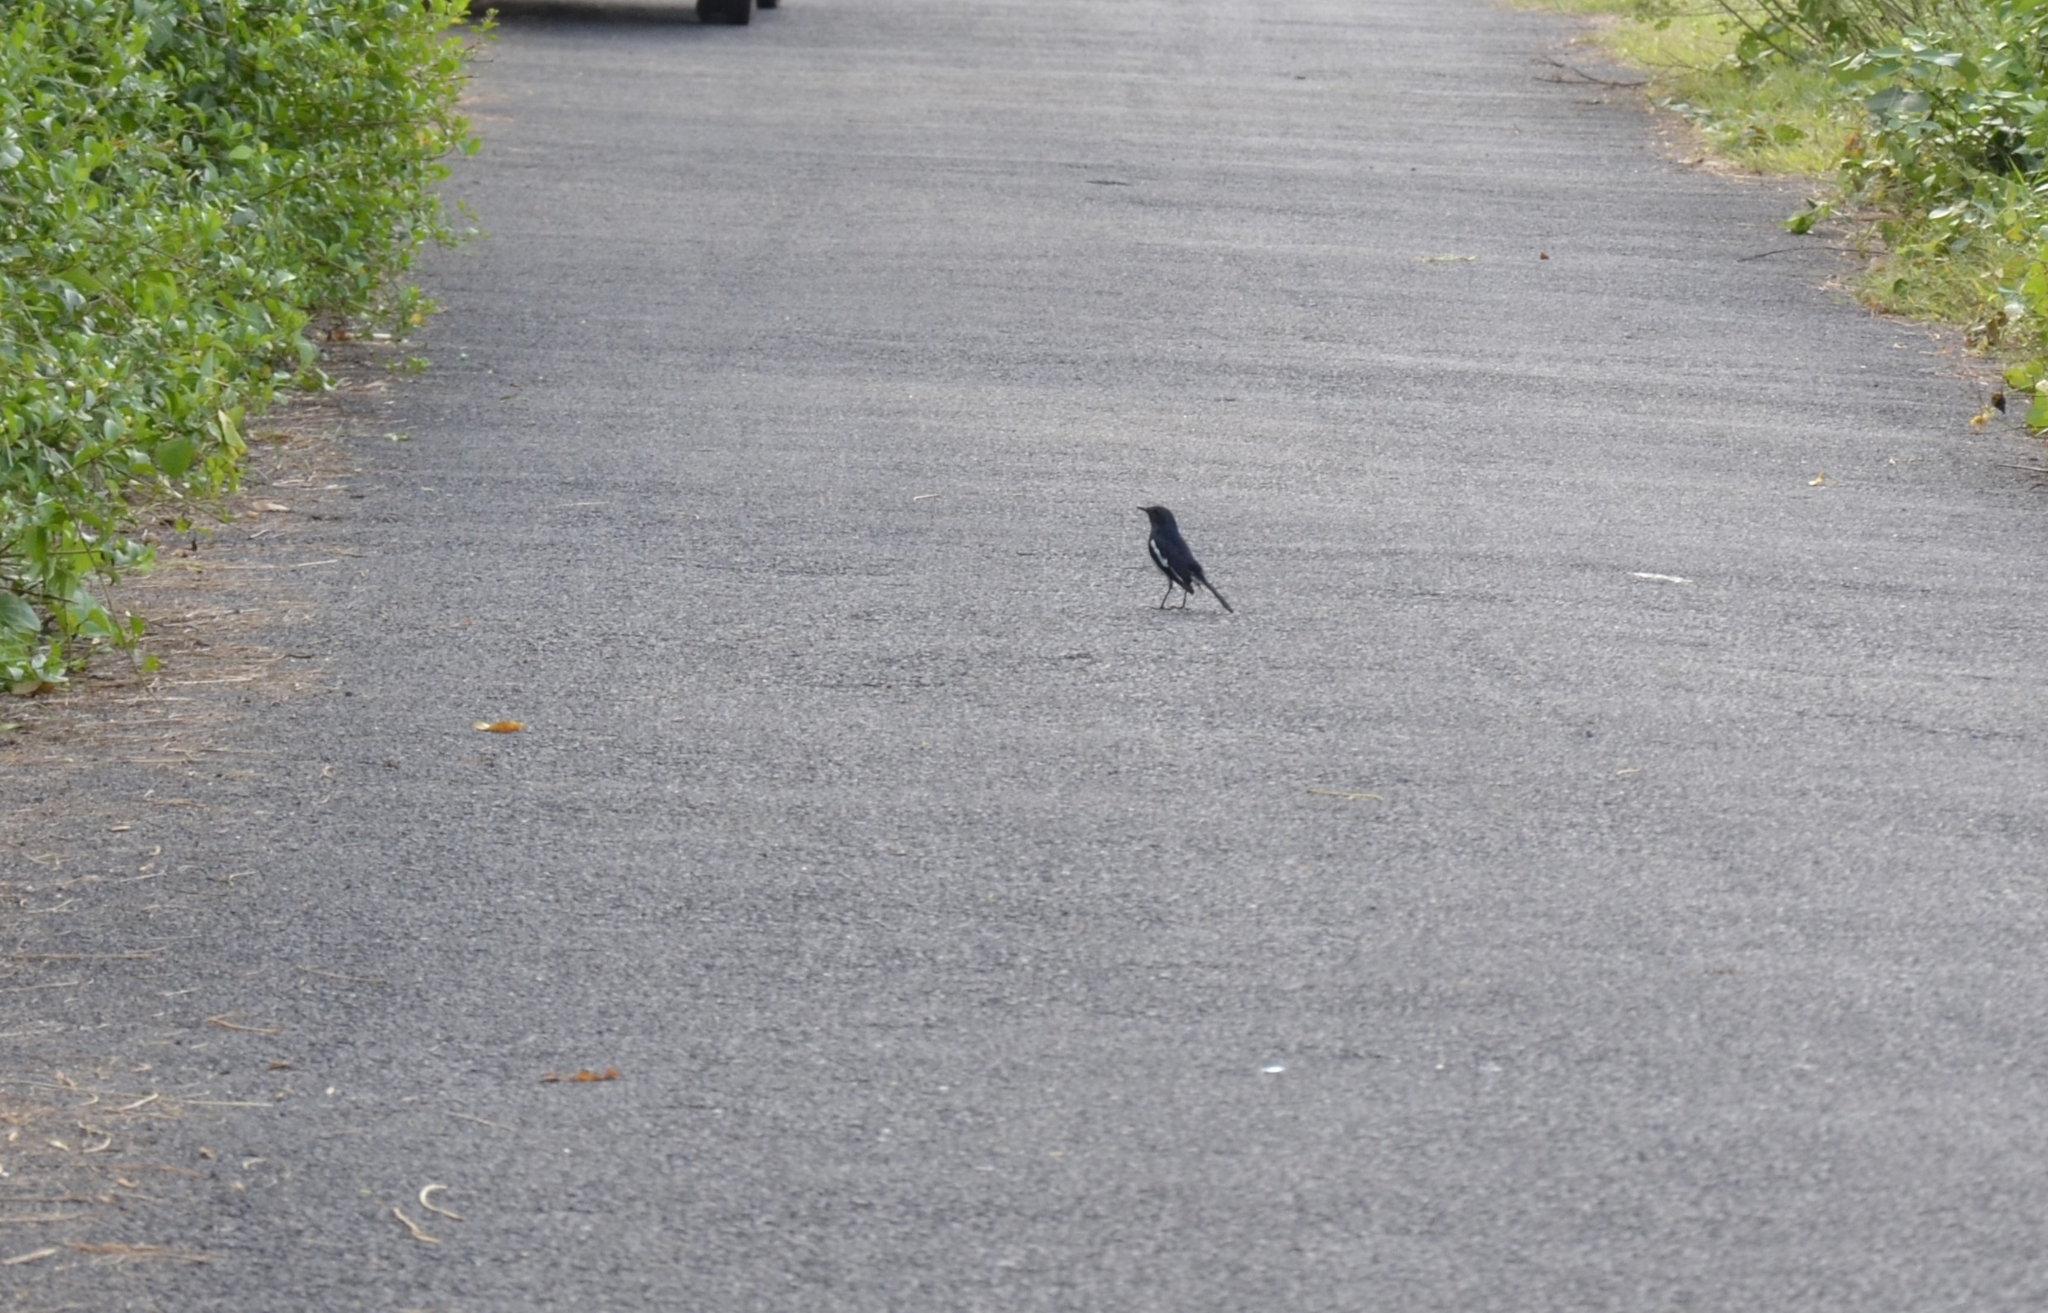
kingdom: Animalia
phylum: Chordata
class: Aves
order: Passeriformes
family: Muscicapidae
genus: Copsychus
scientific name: Copsychus saularis
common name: Oriental magpie-robin
